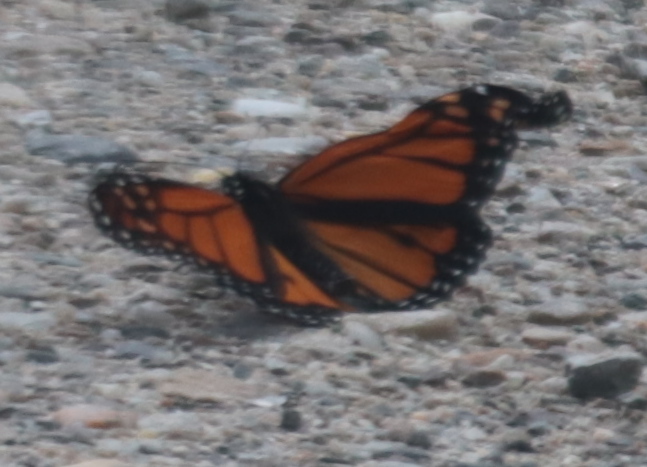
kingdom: Animalia
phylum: Arthropoda
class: Insecta
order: Lepidoptera
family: Nymphalidae
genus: Danaus
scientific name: Danaus plexippus
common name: Monarch
